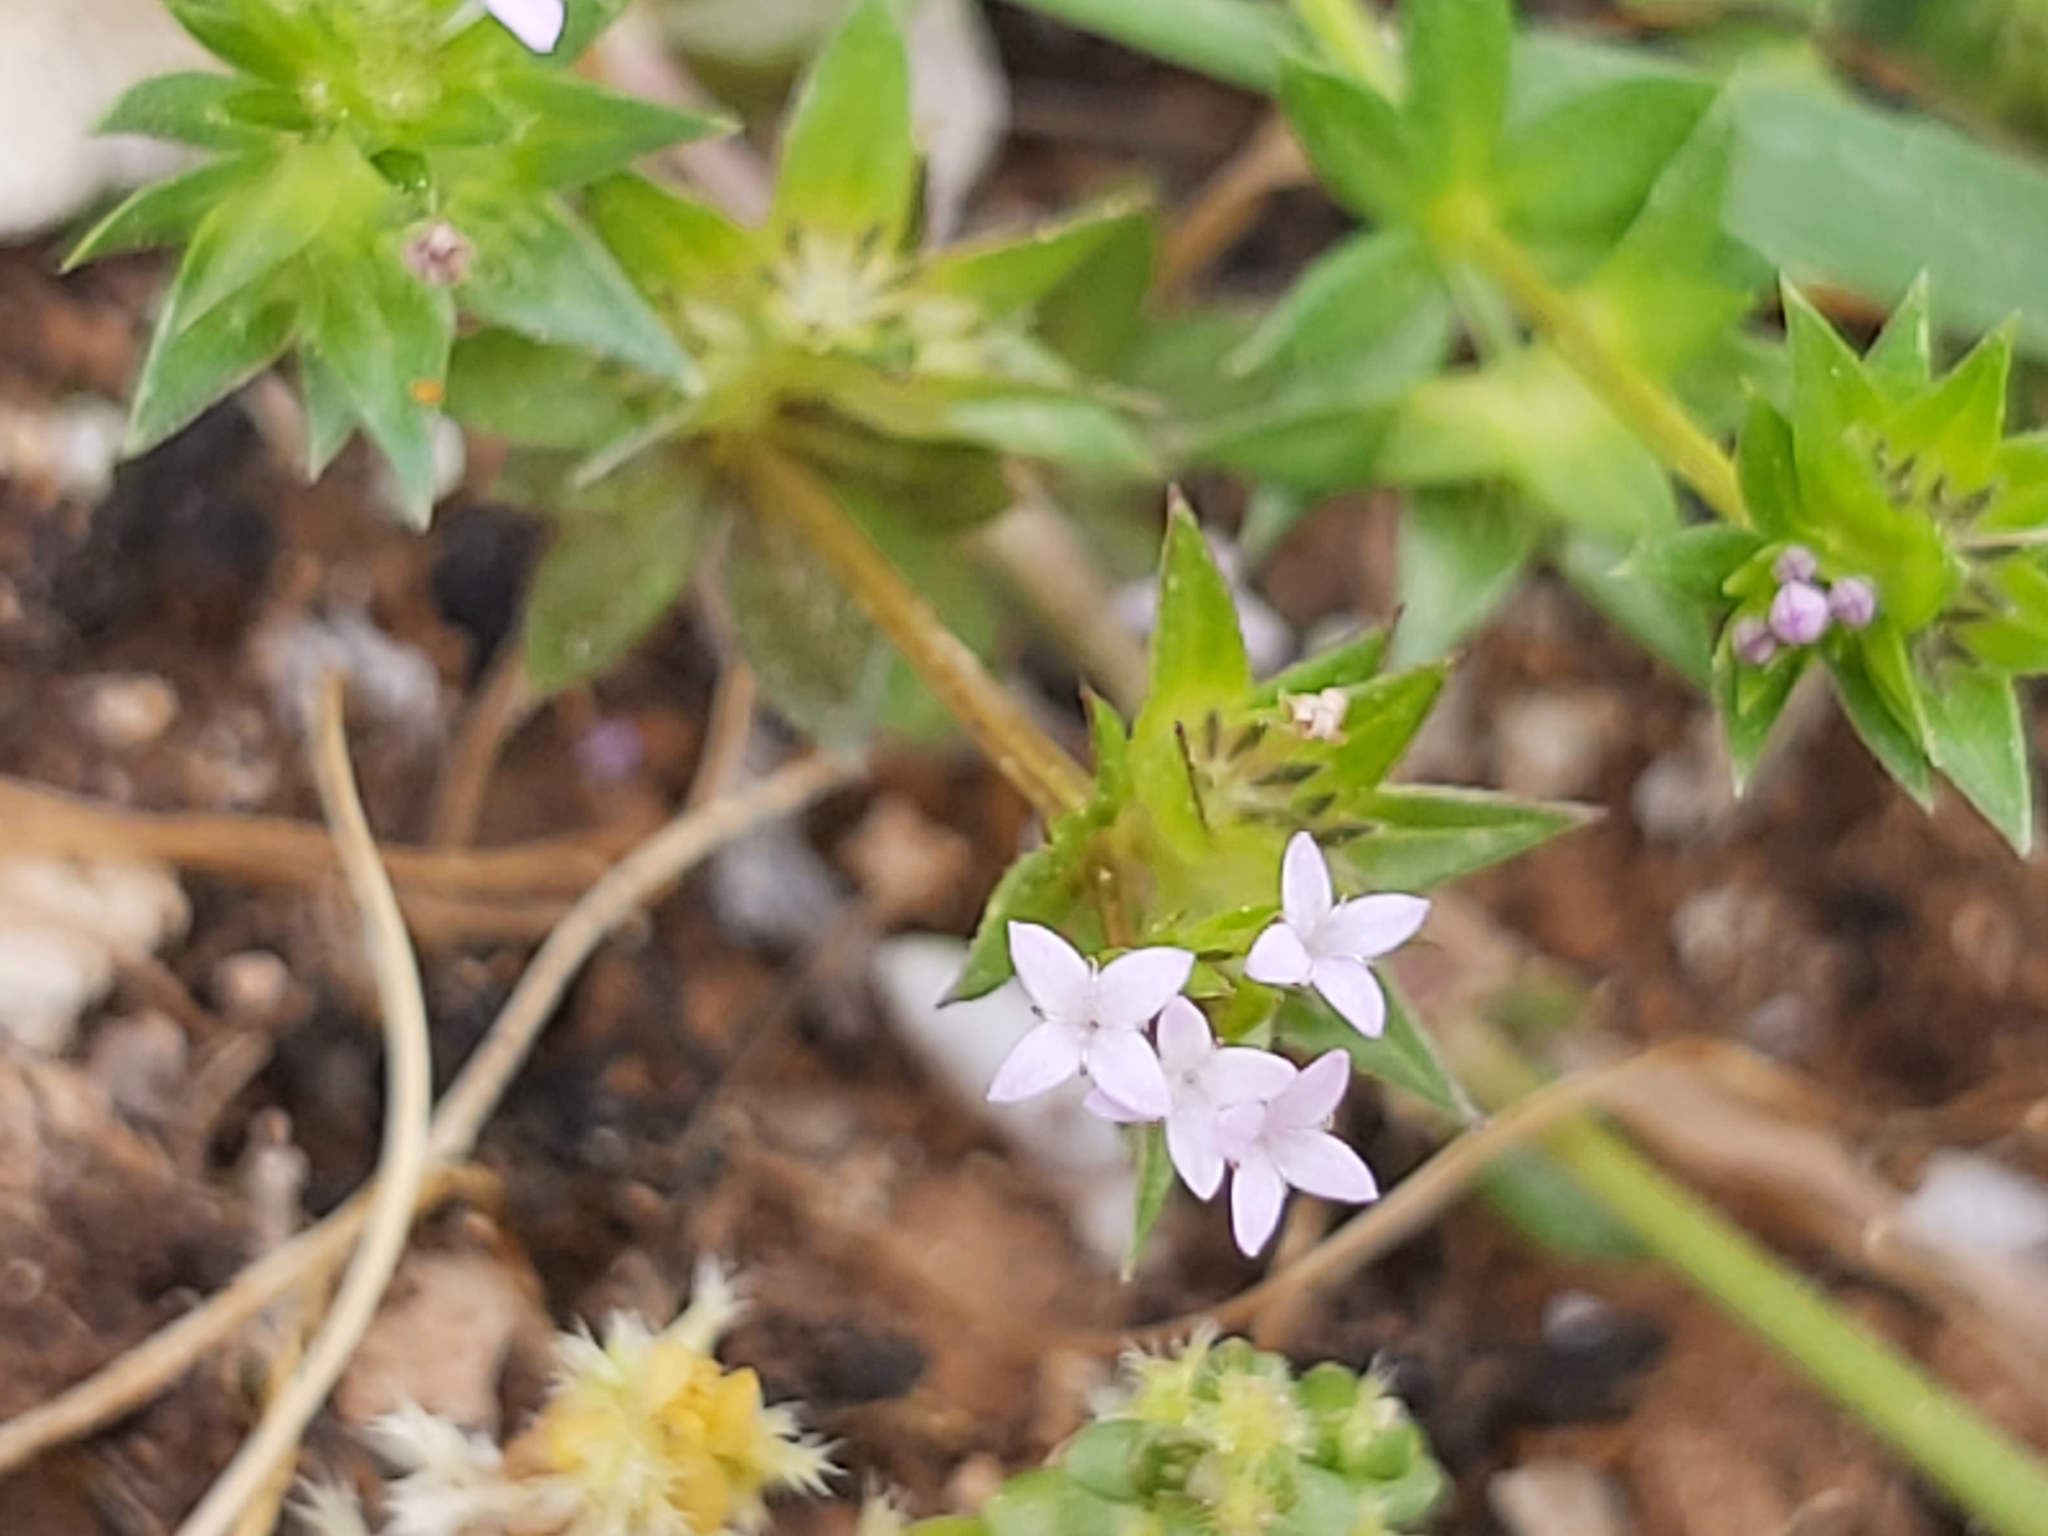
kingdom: Plantae
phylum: Tracheophyta
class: Magnoliopsida
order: Gentianales
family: Rubiaceae
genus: Sherardia
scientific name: Sherardia arvensis
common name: Field madder
